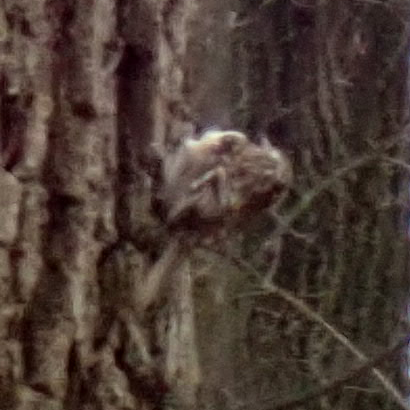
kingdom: Animalia
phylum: Chordata
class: Aves
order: Passeriformes
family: Certhiidae
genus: Certhia
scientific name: Certhia americana
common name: Brown creeper
